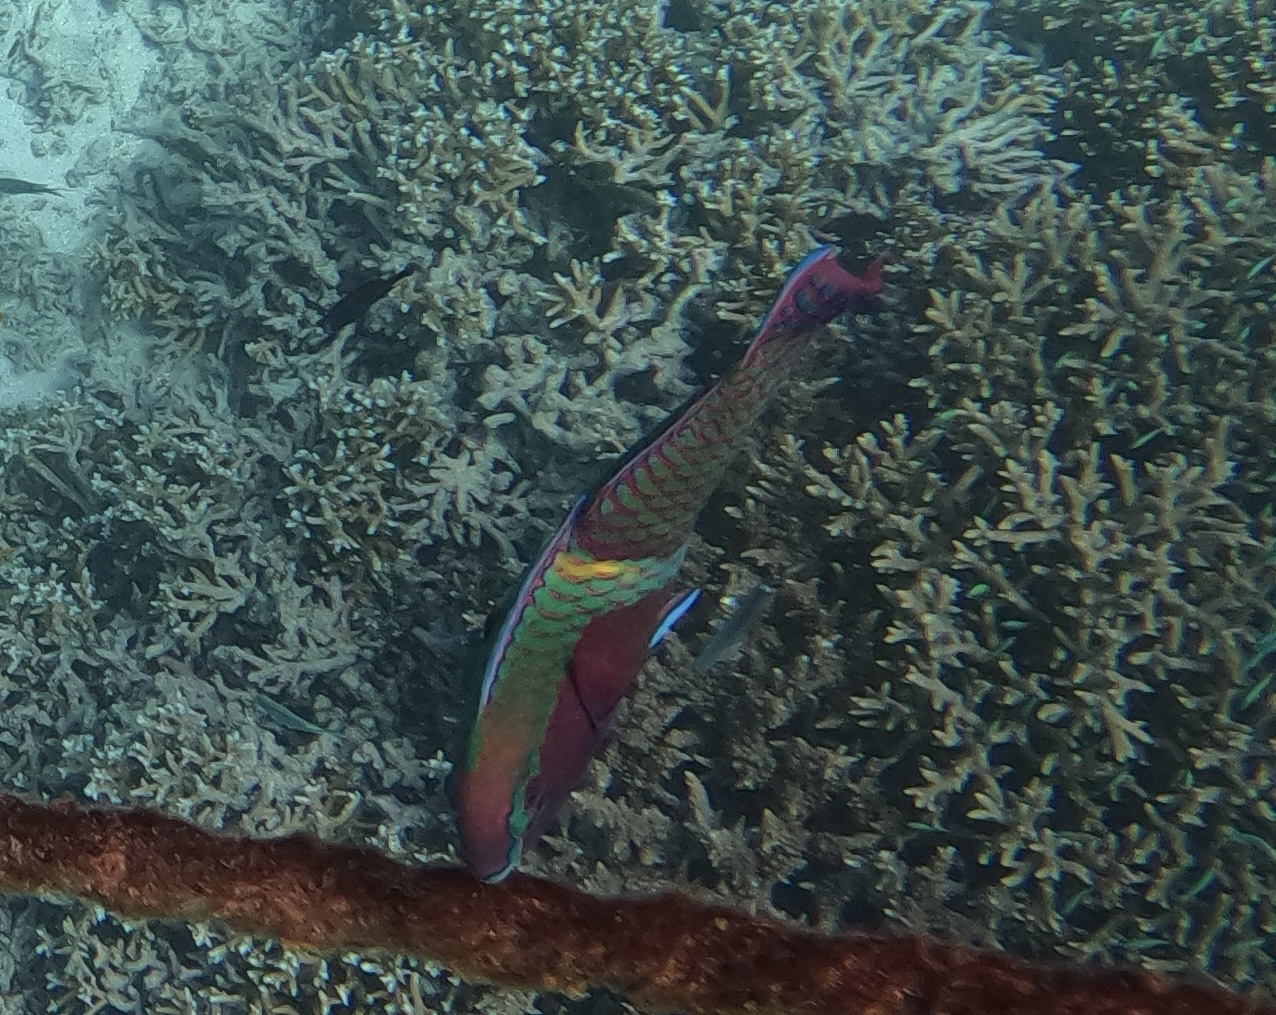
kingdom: Animalia
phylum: Chordata
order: Perciformes
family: Scaridae
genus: Scarus
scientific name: Scarus schlegeli
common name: Schlegel's parrotfish
